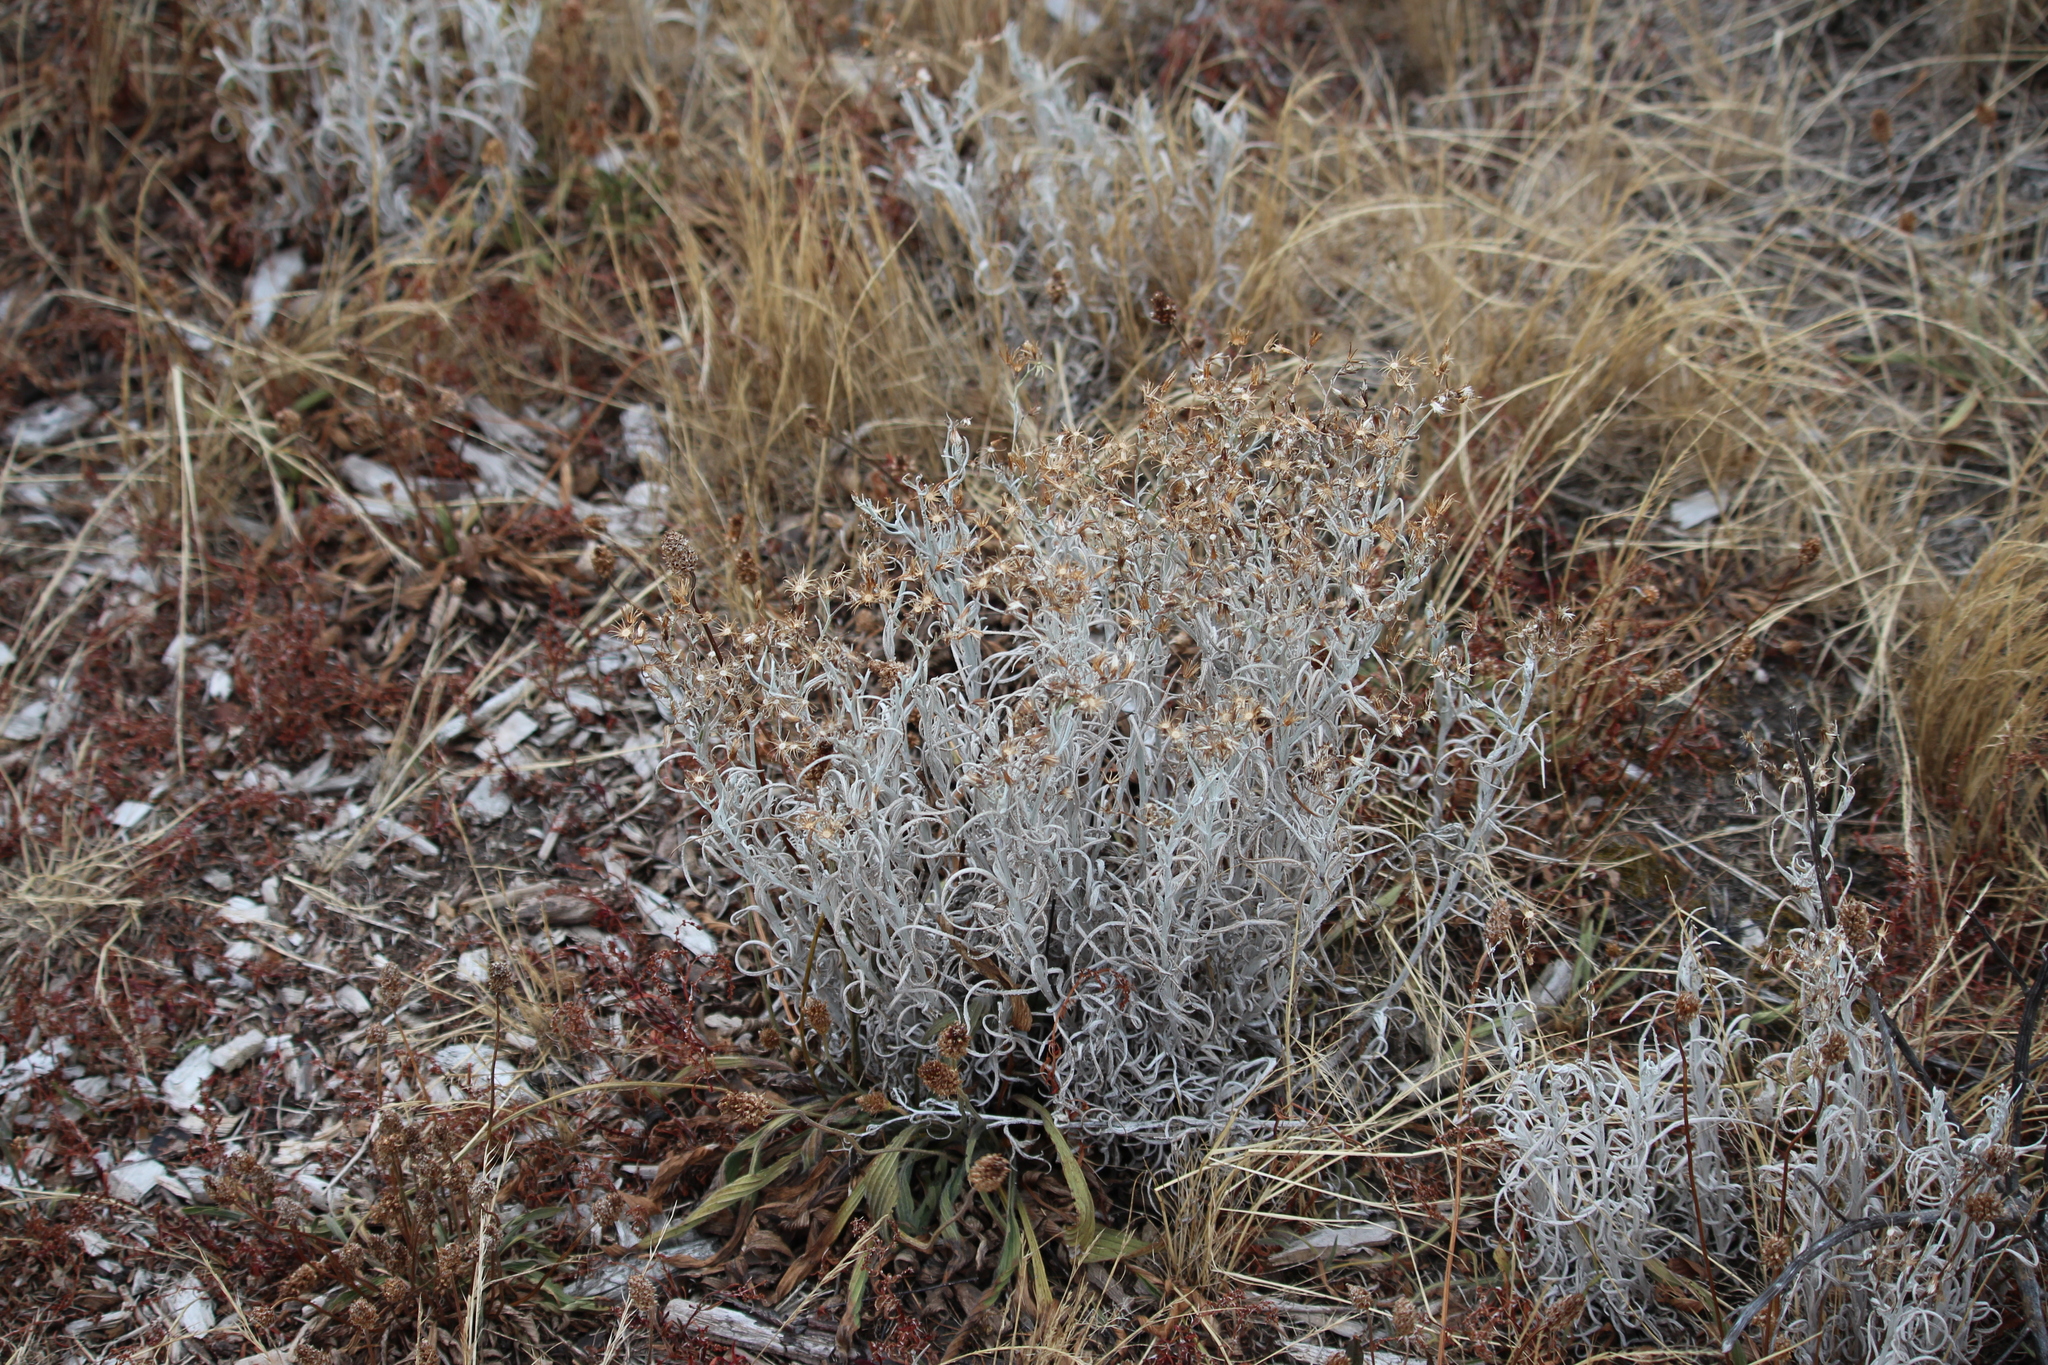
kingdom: Plantae
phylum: Tracheophyta
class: Magnoliopsida
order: Asterales
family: Asteraceae
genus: Helichrysum
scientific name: Helichrysum luteoalbum
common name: Daisy
